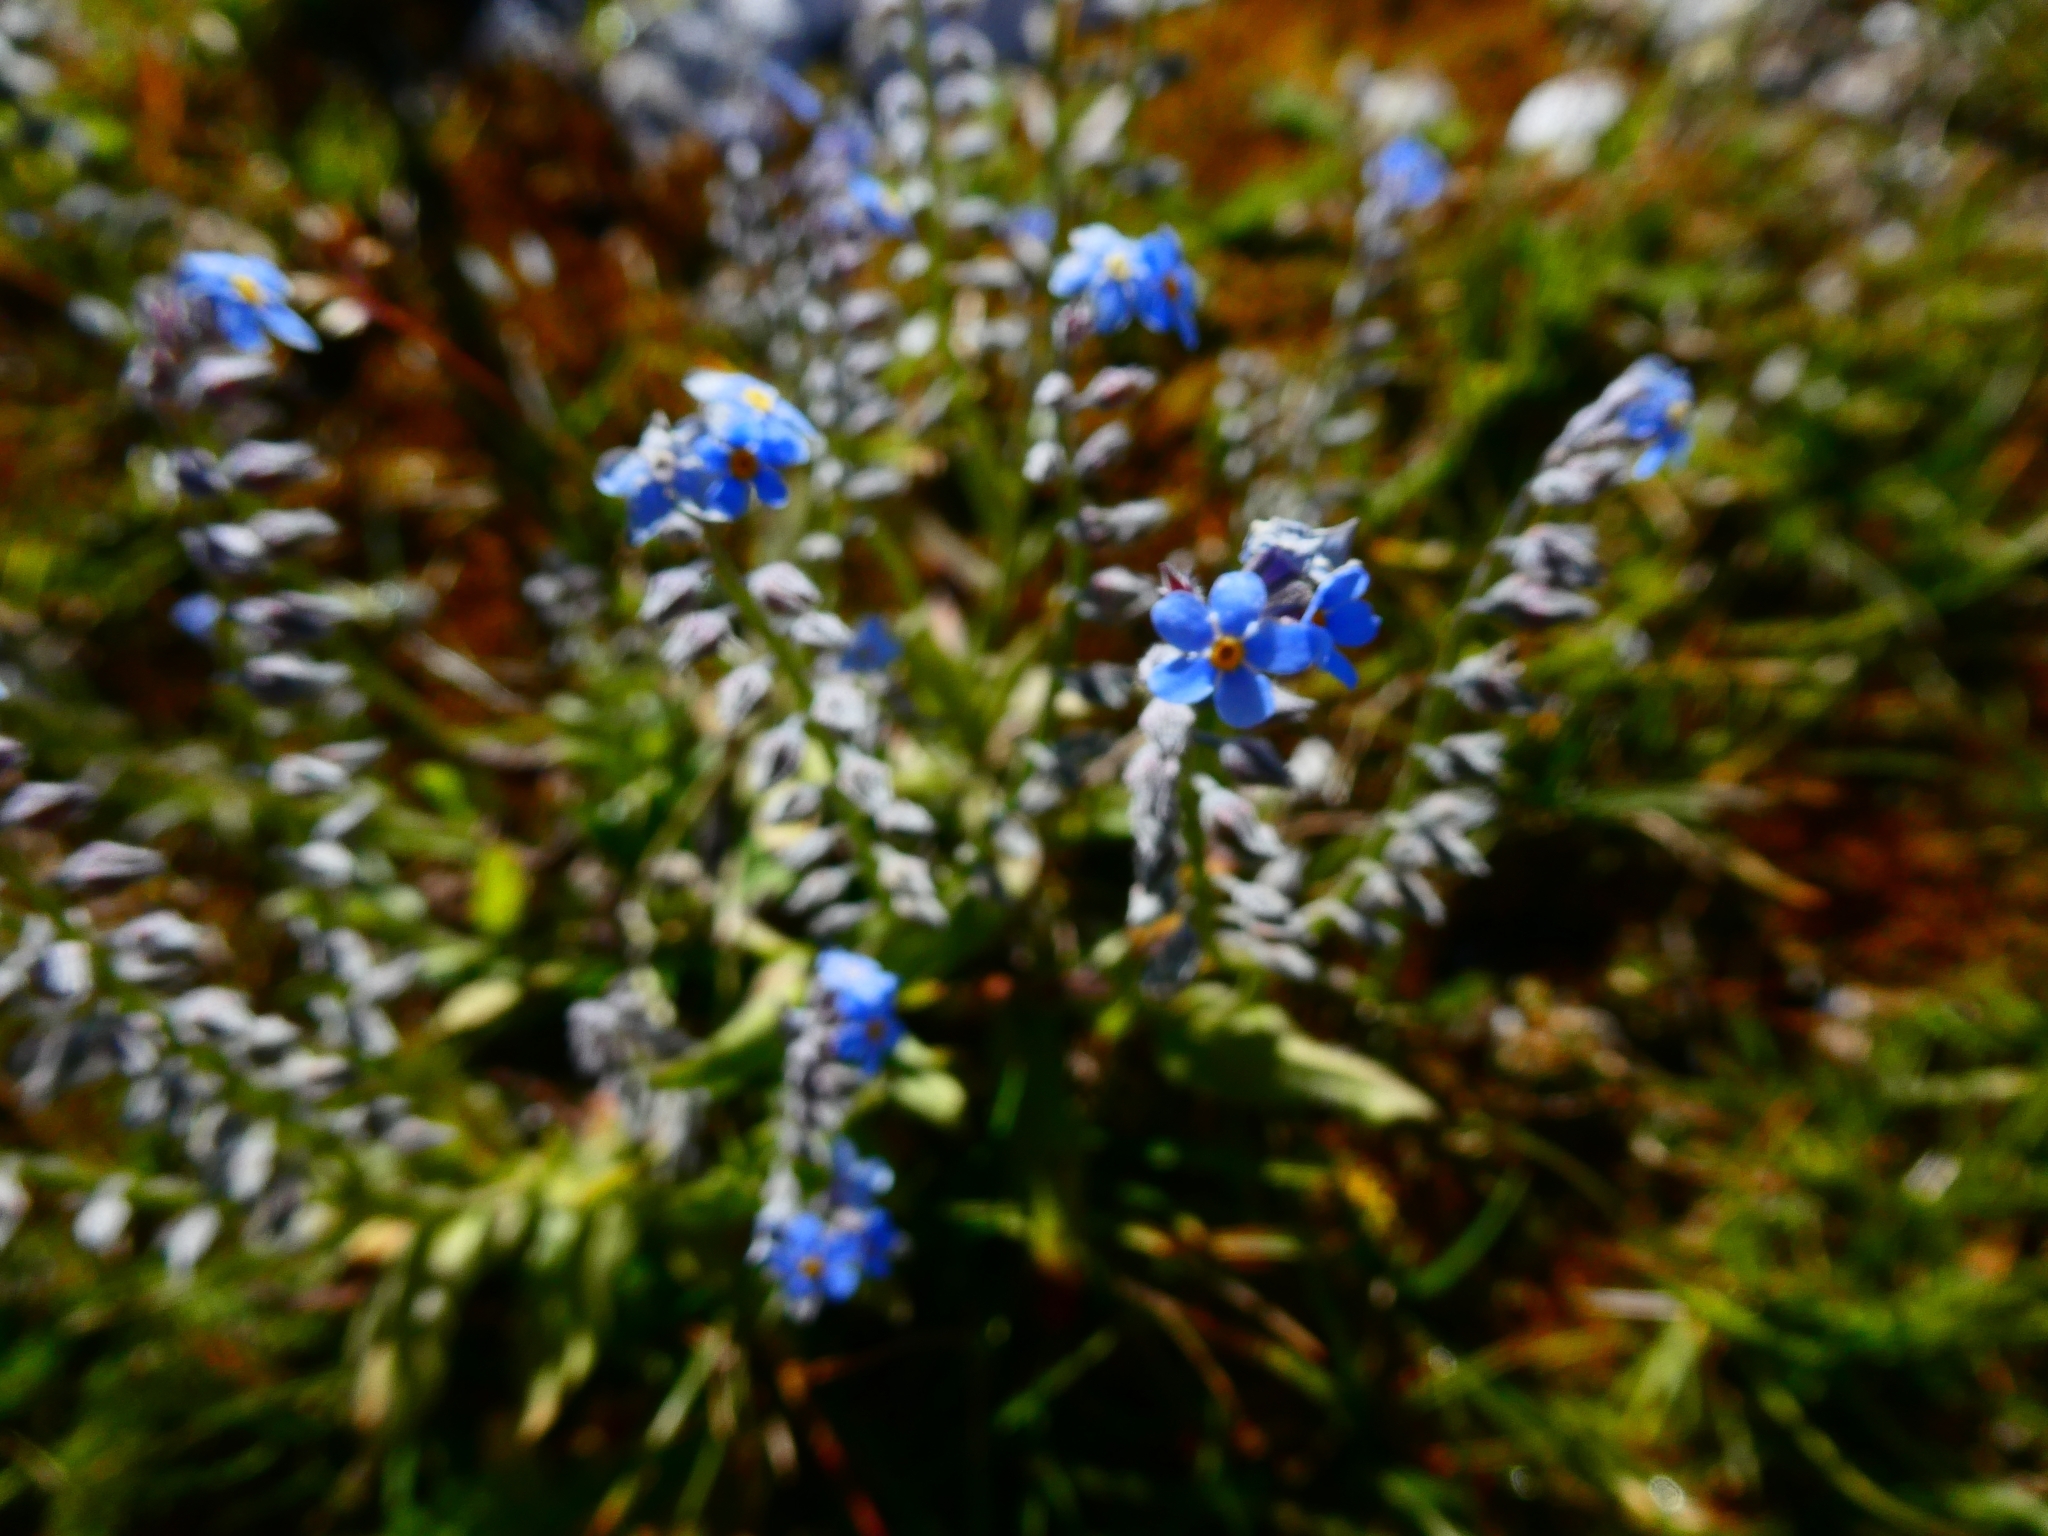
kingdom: Plantae
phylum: Tracheophyta
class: Magnoliopsida
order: Boraginales
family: Boraginaceae
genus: Myosotis
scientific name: Myosotis alpestris
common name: Alpine forget-me-not
